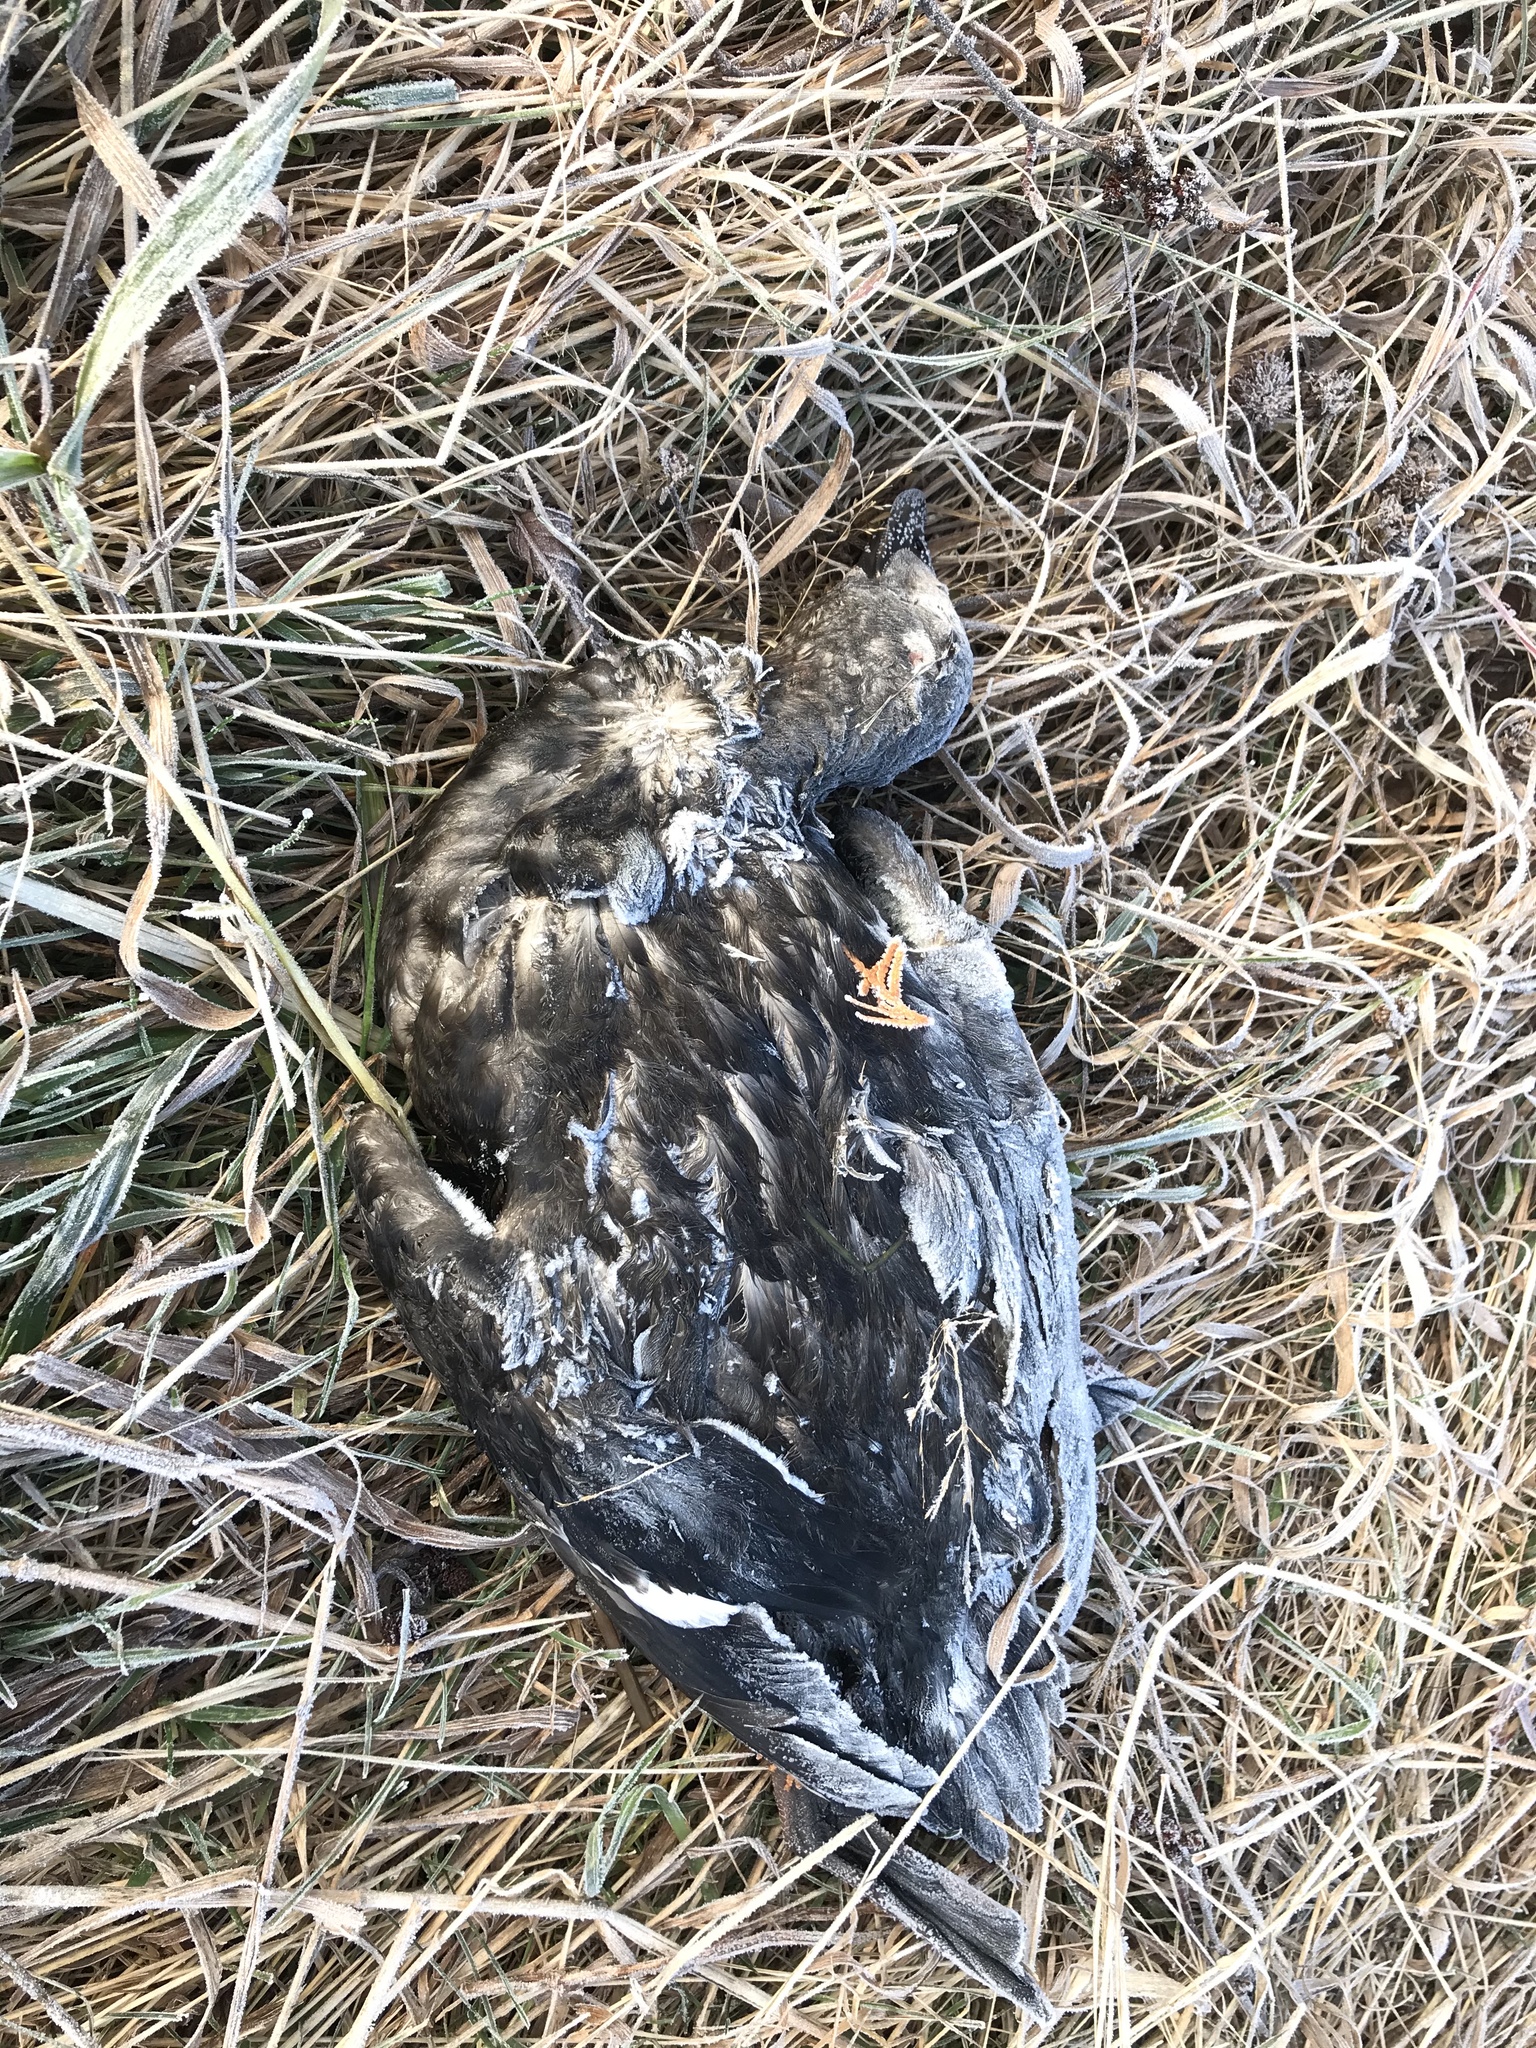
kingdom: Animalia
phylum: Chordata
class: Aves
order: Anseriformes
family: Anatidae
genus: Melanitta
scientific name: Melanitta deglandi
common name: White-winged scoter
